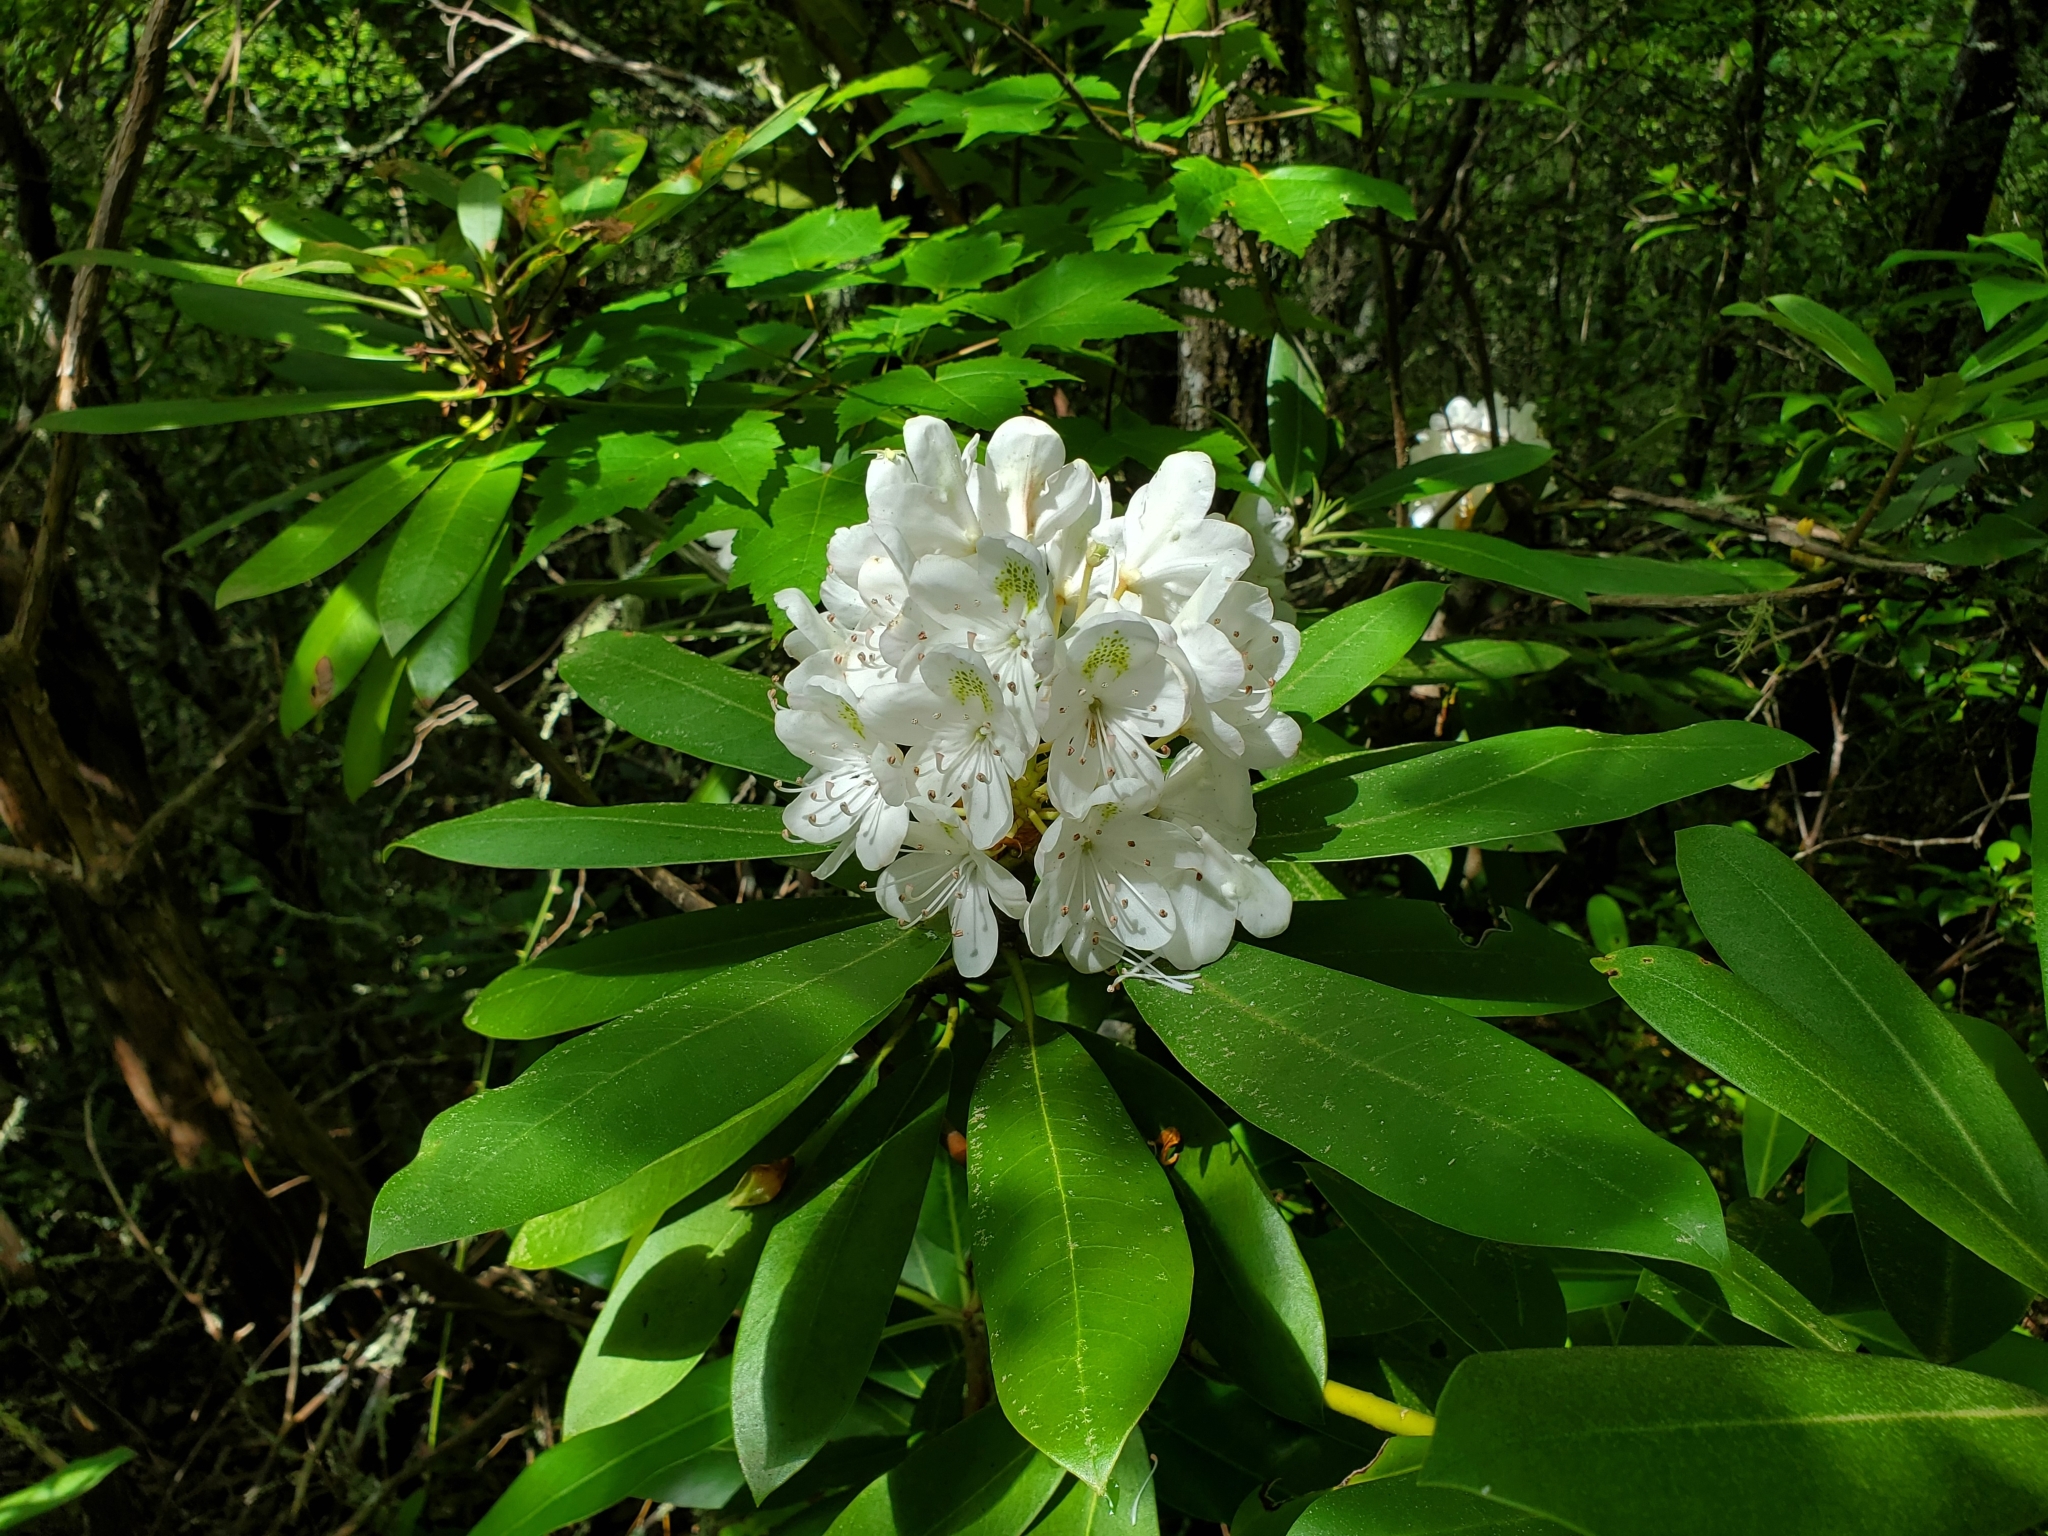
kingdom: Plantae
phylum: Tracheophyta
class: Magnoliopsida
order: Ericales
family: Ericaceae
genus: Rhododendron
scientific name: Rhododendron maximum
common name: Great rhododendron
